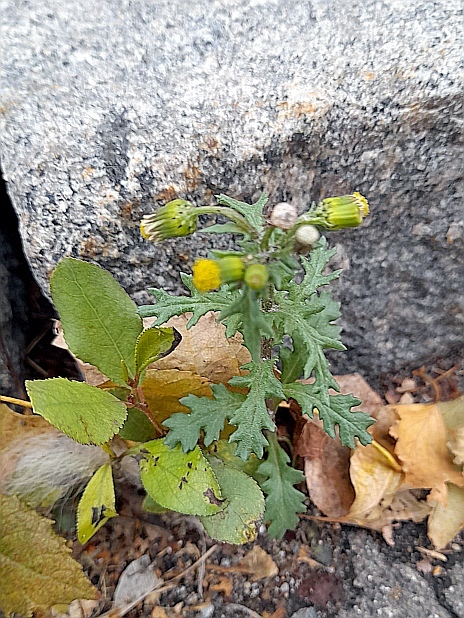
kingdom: Plantae
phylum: Tracheophyta
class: Magnoliopsida
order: Asterales
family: Asteraceae
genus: Senecio
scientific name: Senecio vulgaris
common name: Old-man-in-the-spring
